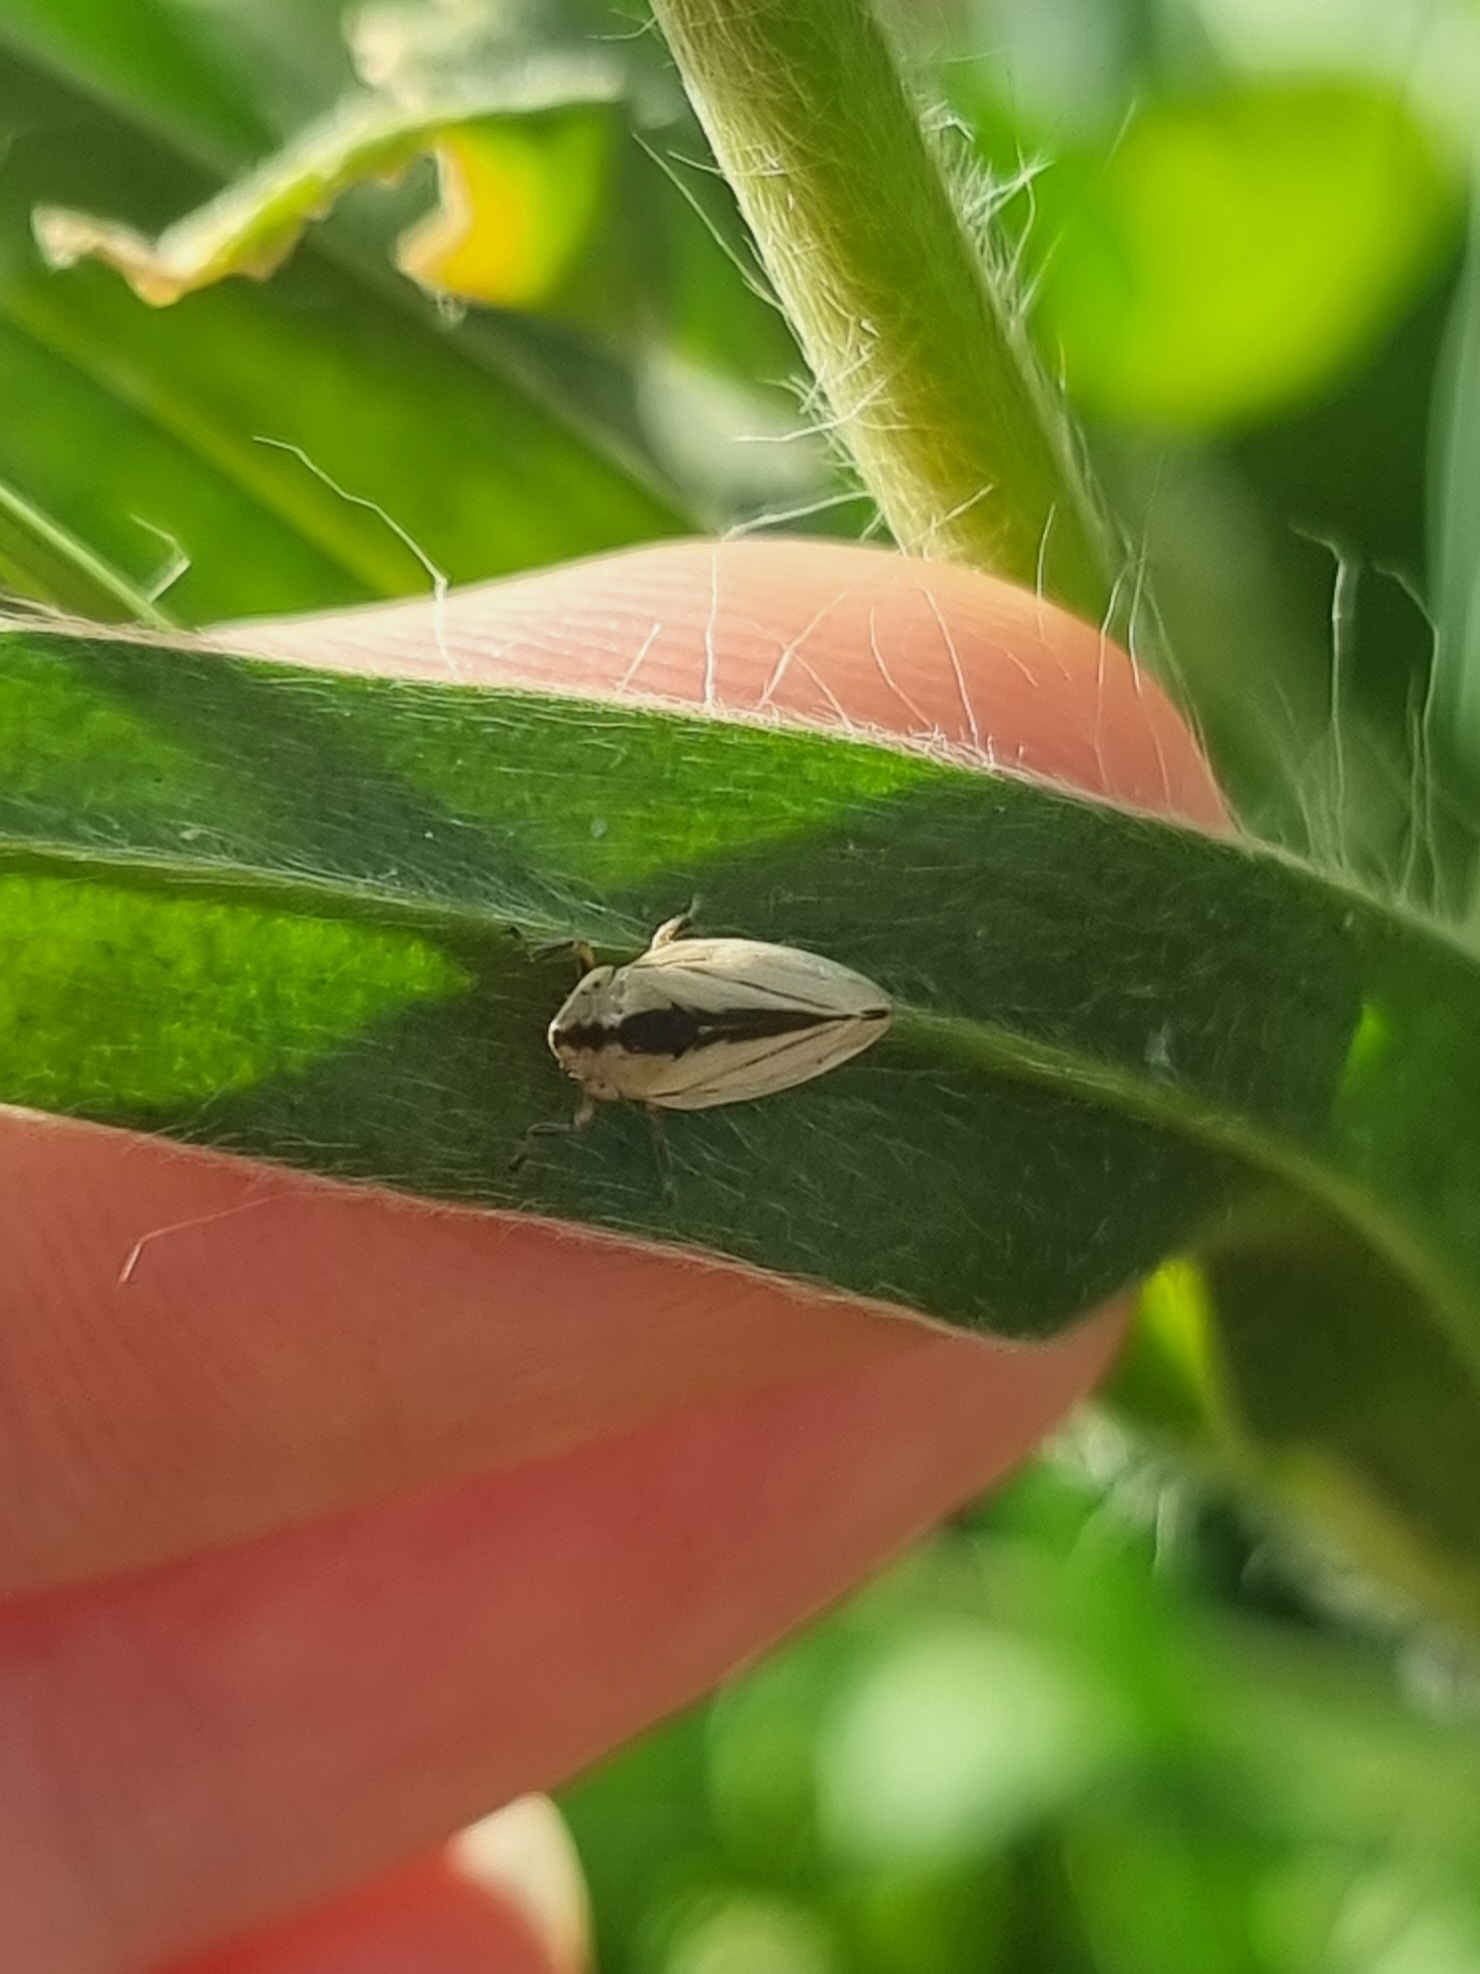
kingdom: Animalia
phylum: Arthropoda
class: Insecta
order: Hemiptera
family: Aphrophoridae
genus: Philaenus
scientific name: Philaenus spumarius
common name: Meadow spittlebug
